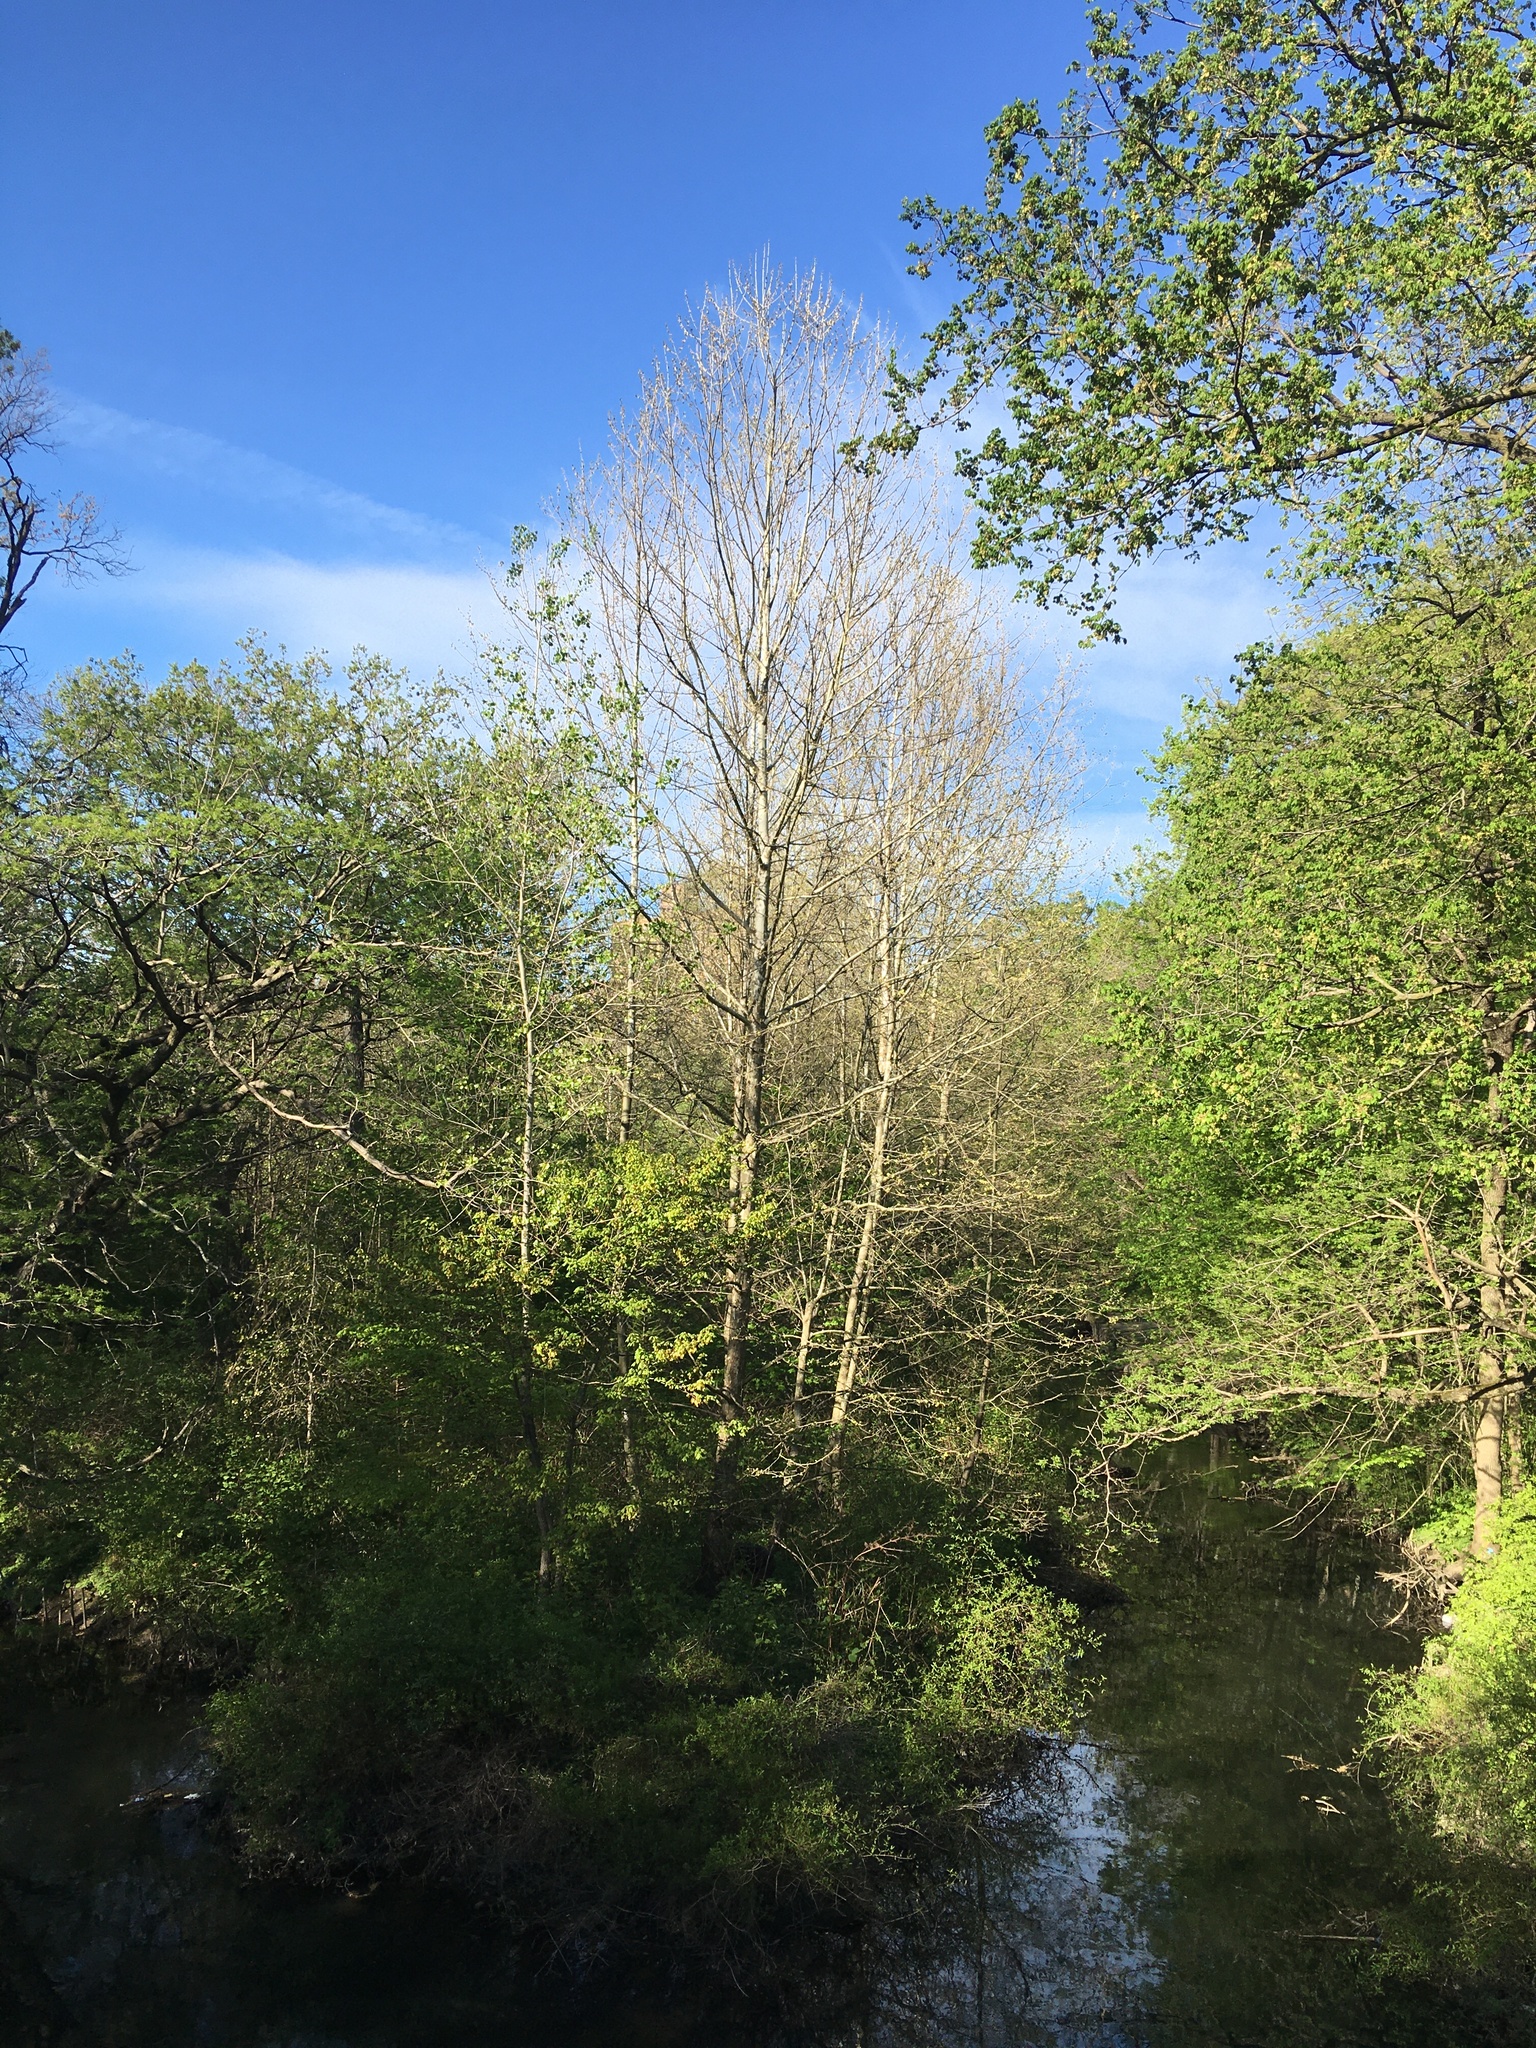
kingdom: Plantae
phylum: Tracheophyta
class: Magnoliopsida
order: Proteales
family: Platanaceae
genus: Platanus
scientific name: Platanus occidentalis
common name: American sycamore
